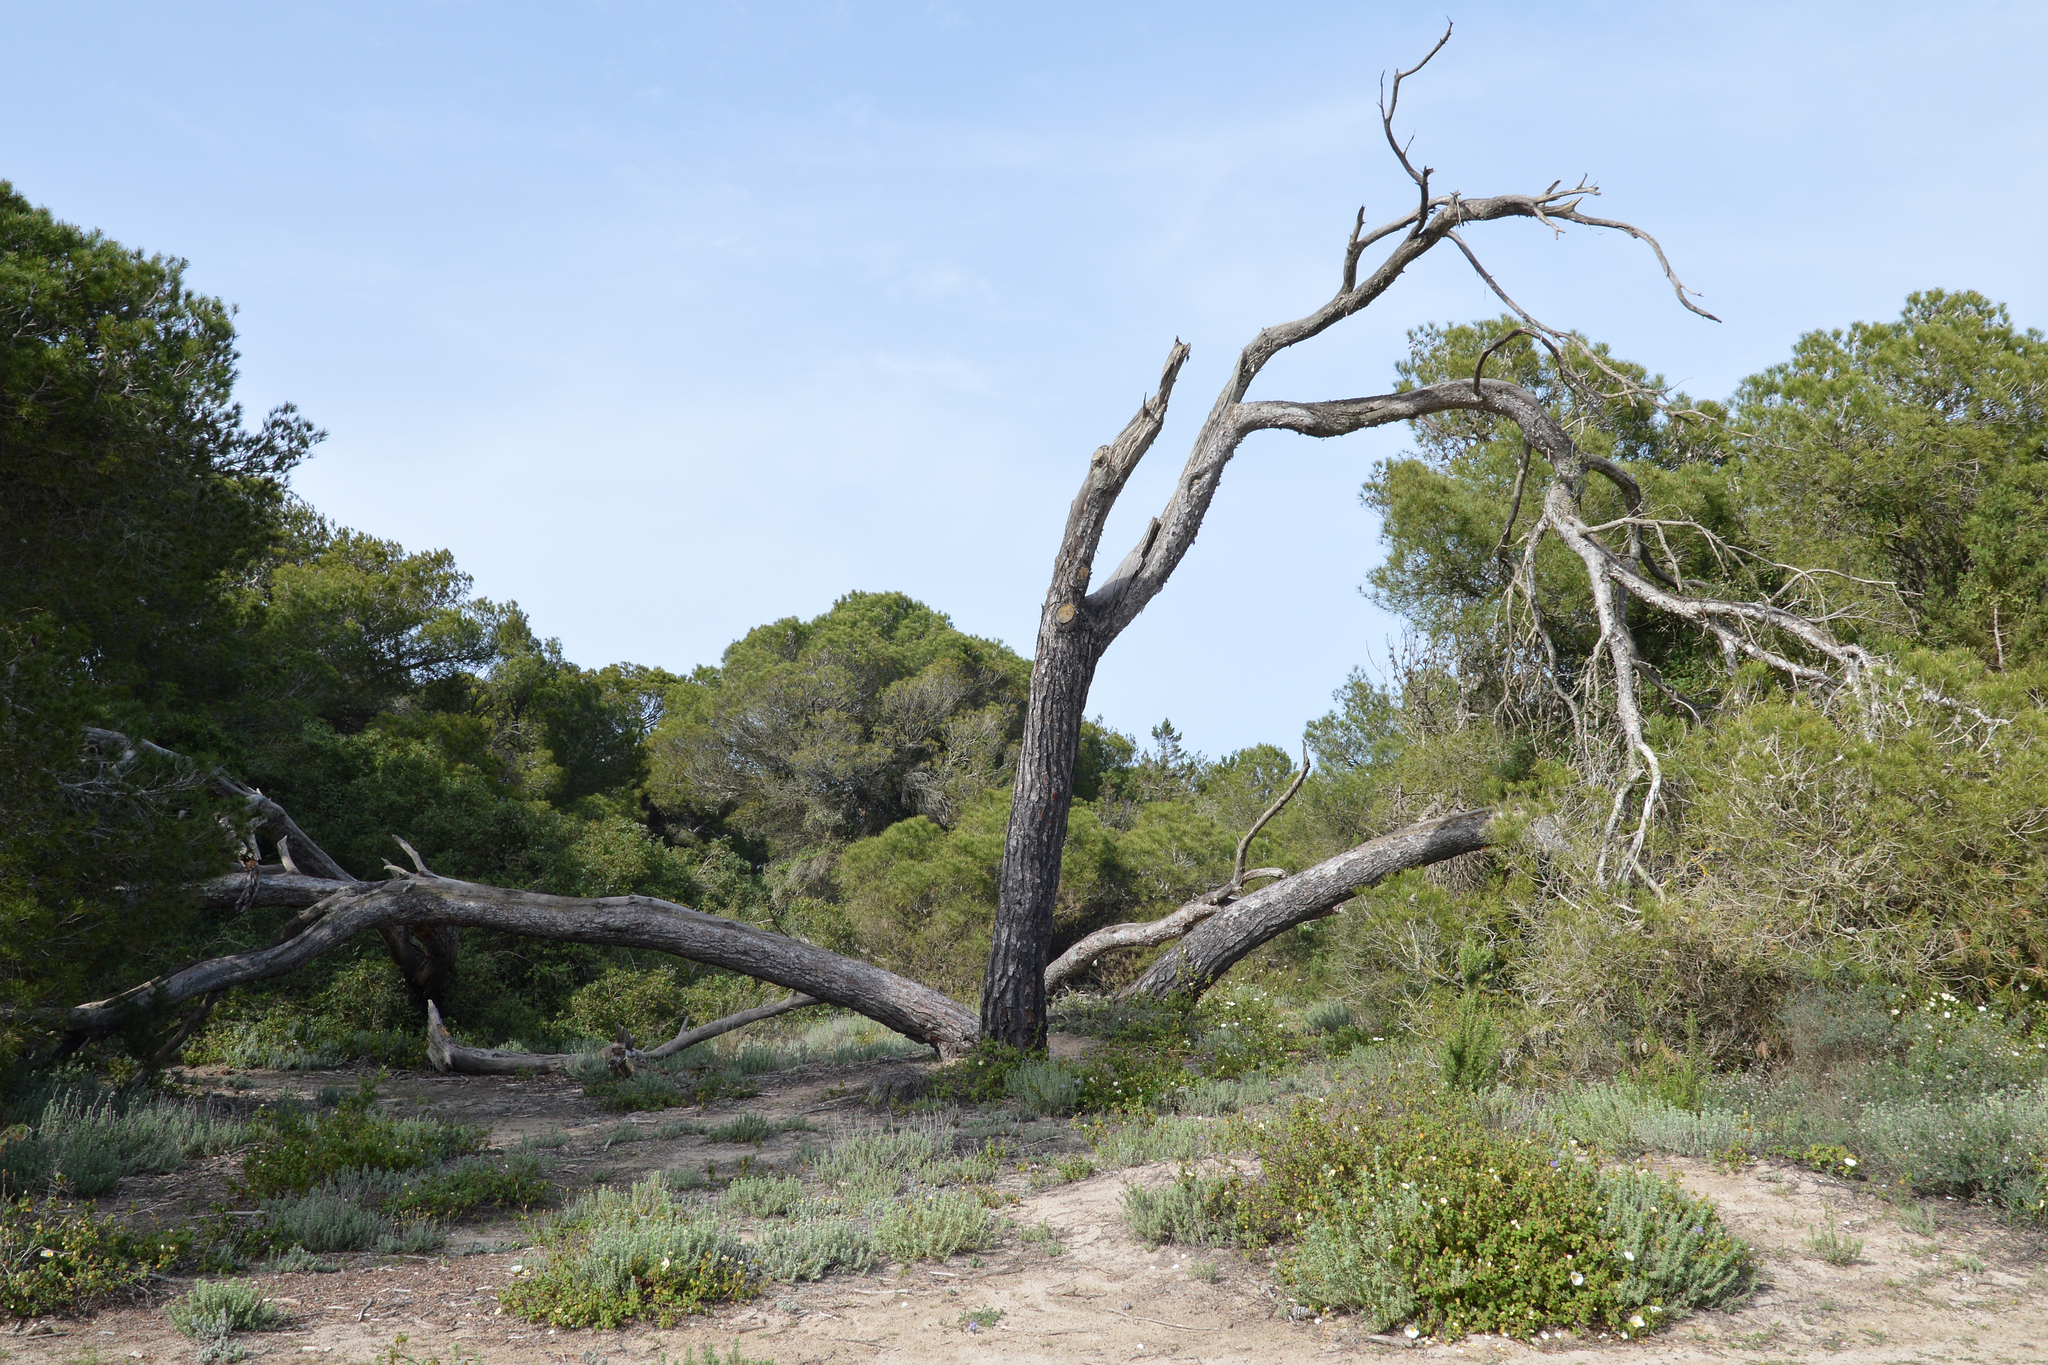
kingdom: Plantae
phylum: Tracheophyta
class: Pinopsida
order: Pinales
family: Pinaceae
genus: Pinus
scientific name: Pinus halepensis
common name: Aleppo pine
